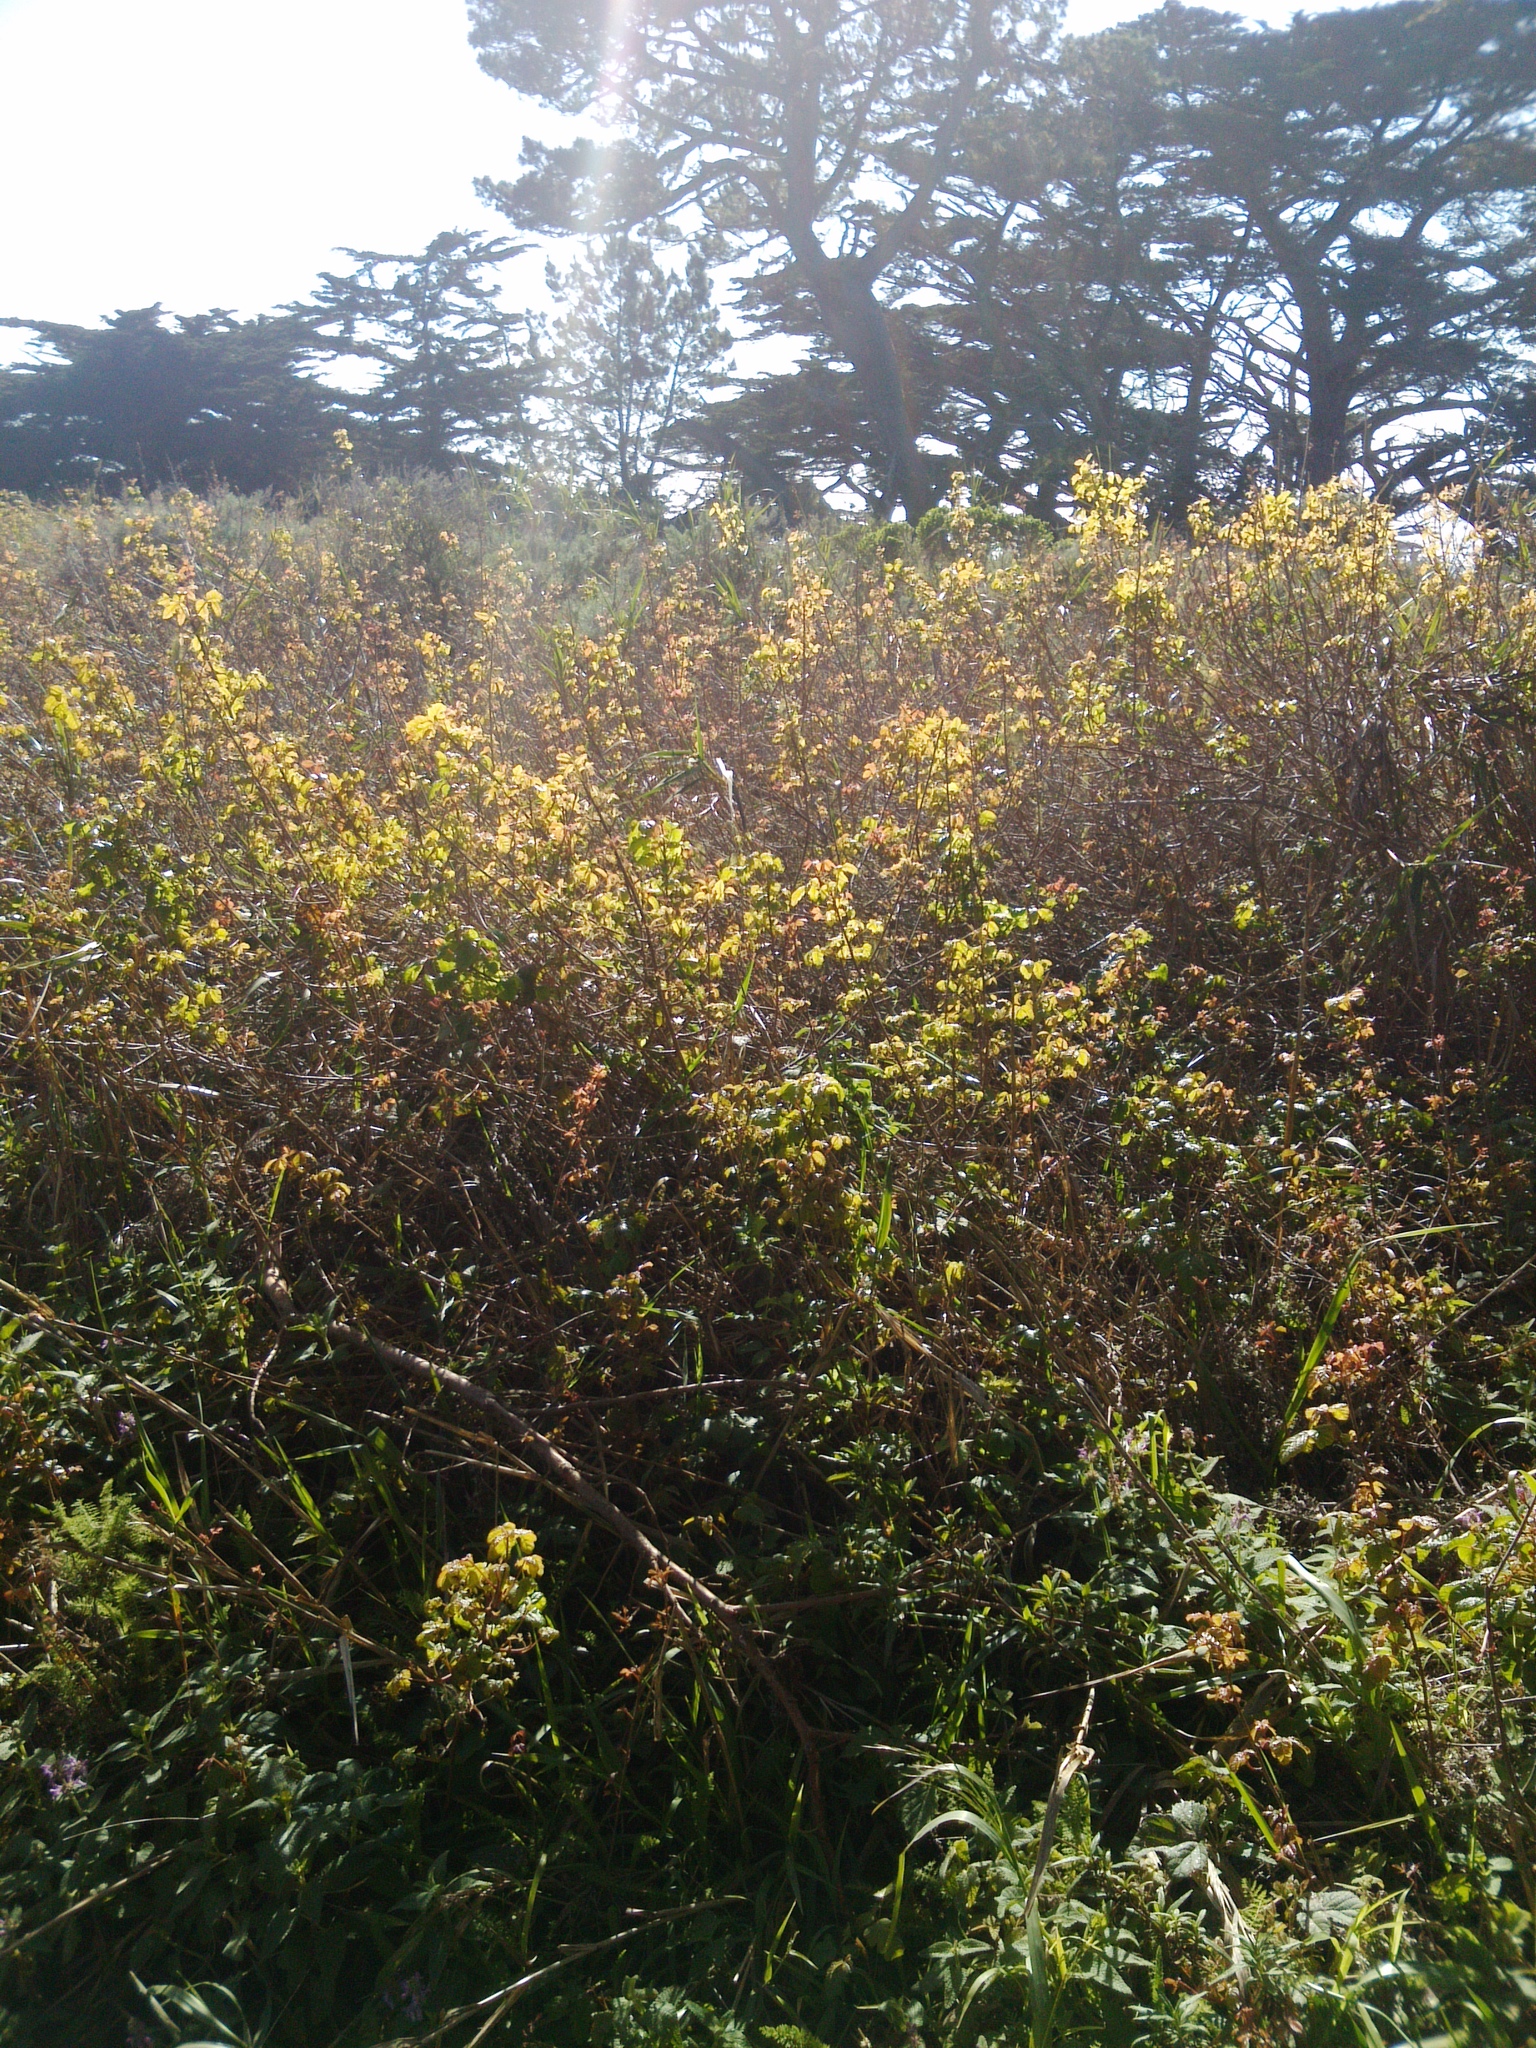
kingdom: Plantae
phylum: Tracheophyta
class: Magnoliopsida
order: Sapindales
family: Anacardiaceae
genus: Toxicodendron
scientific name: Toxicodendron diversilobum
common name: Pacific poison-oak
